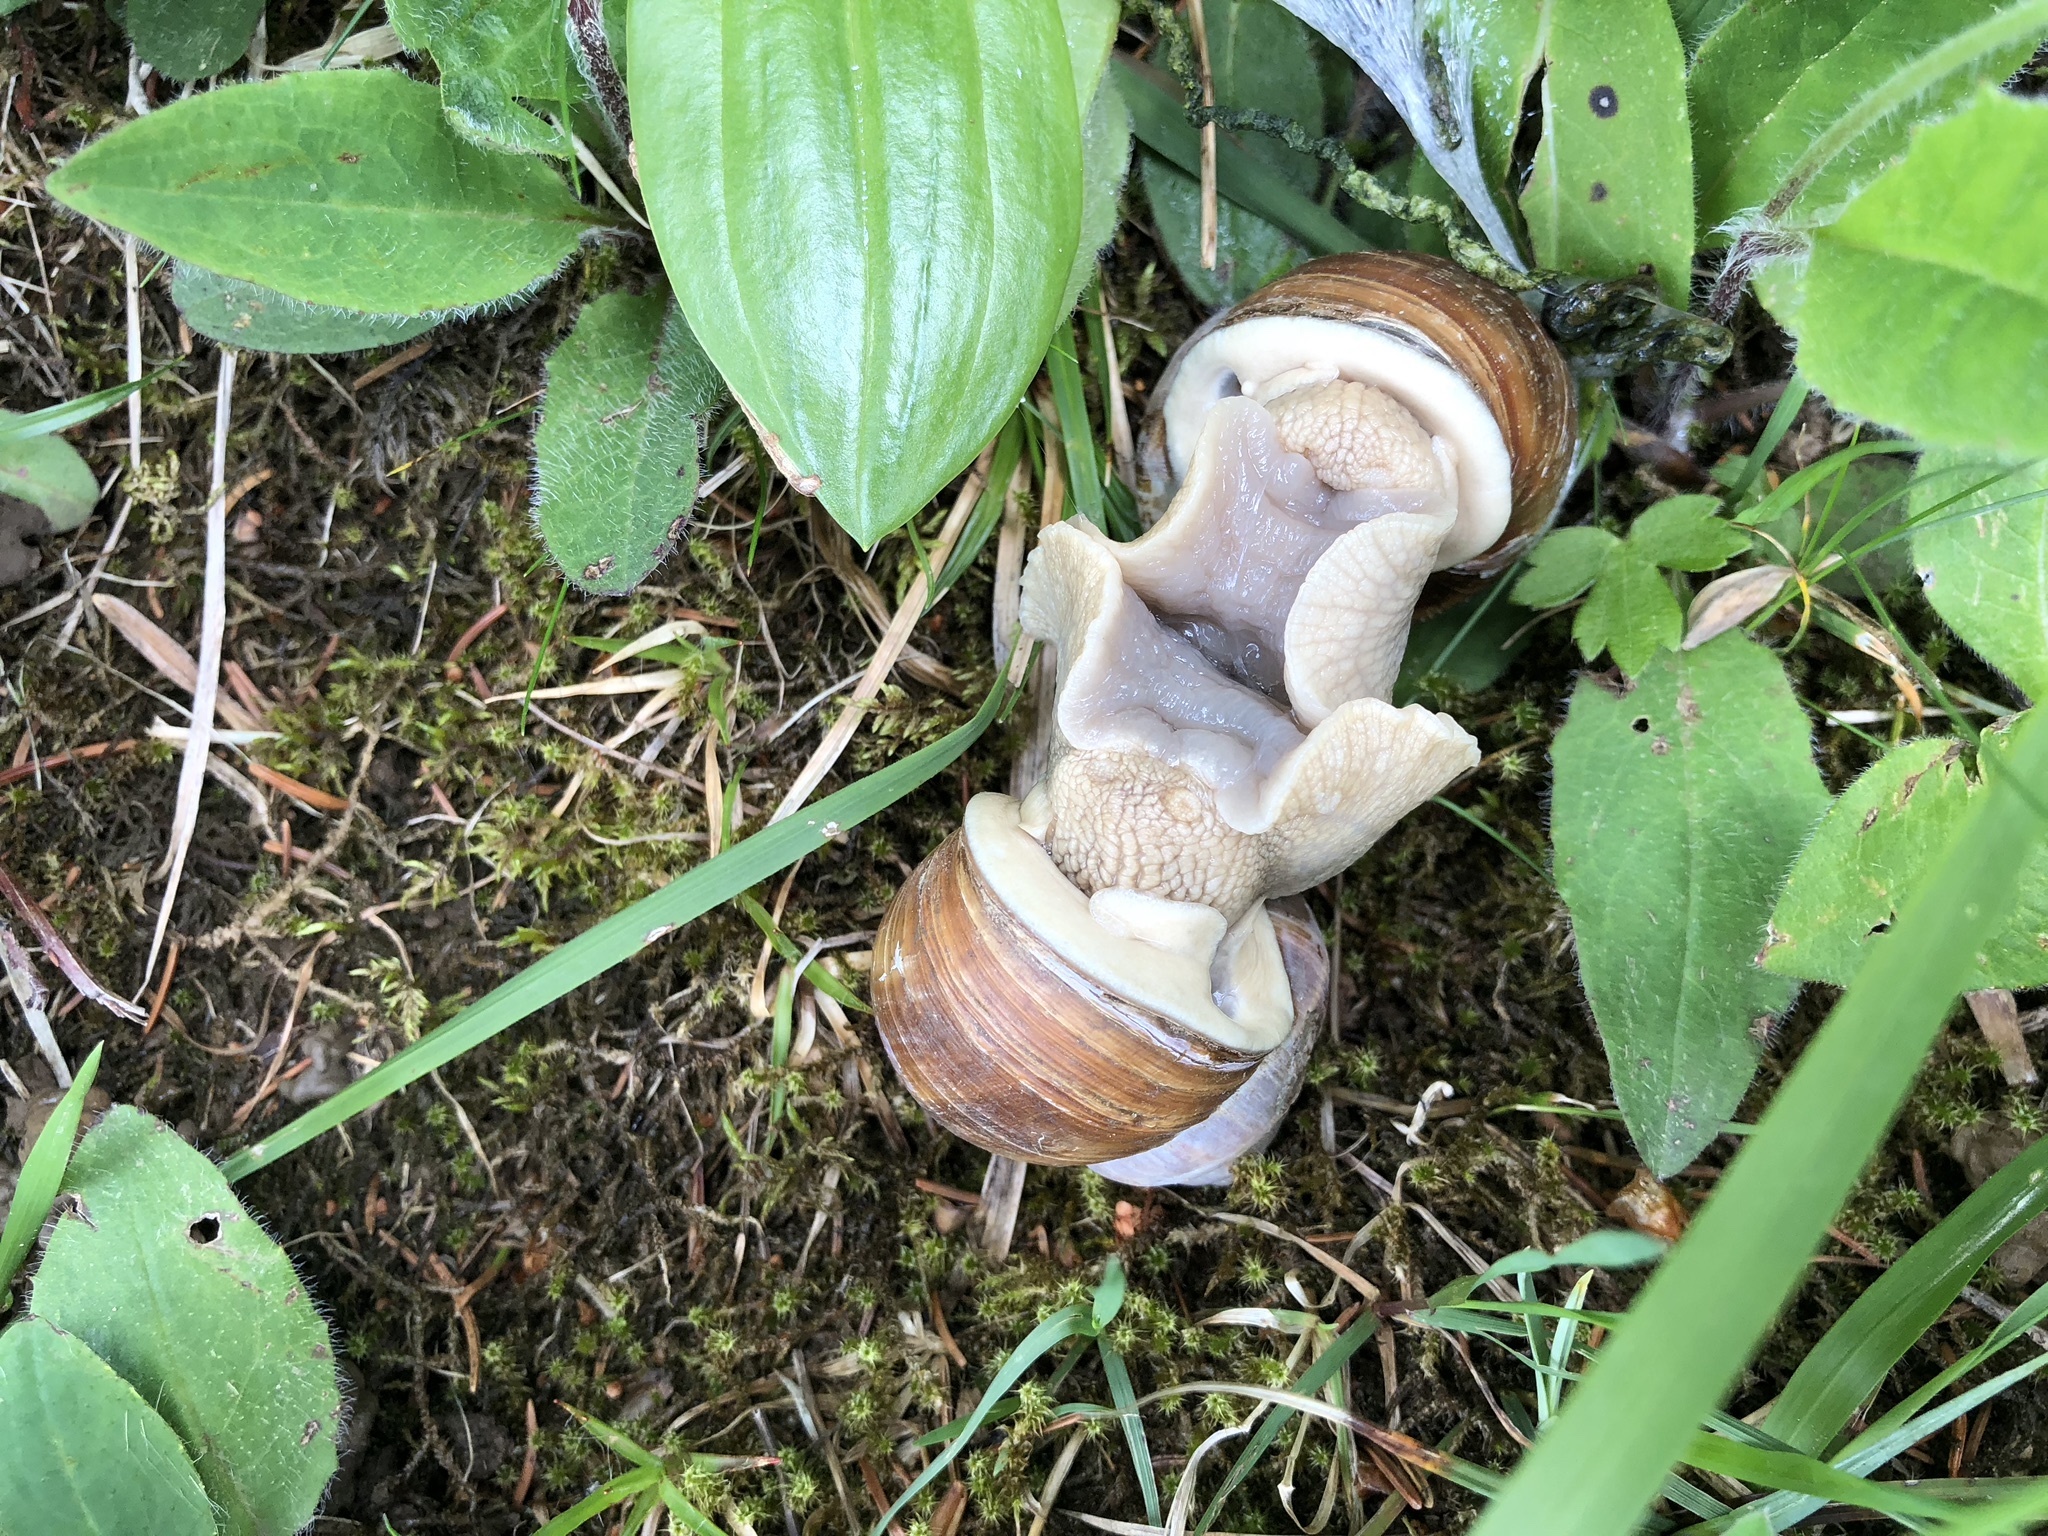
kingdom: Animalia
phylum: Mollusca
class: Gastropoda
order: Stylommatophora
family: Helicidae
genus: Helix
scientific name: Helix pomatia
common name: Roman snail
